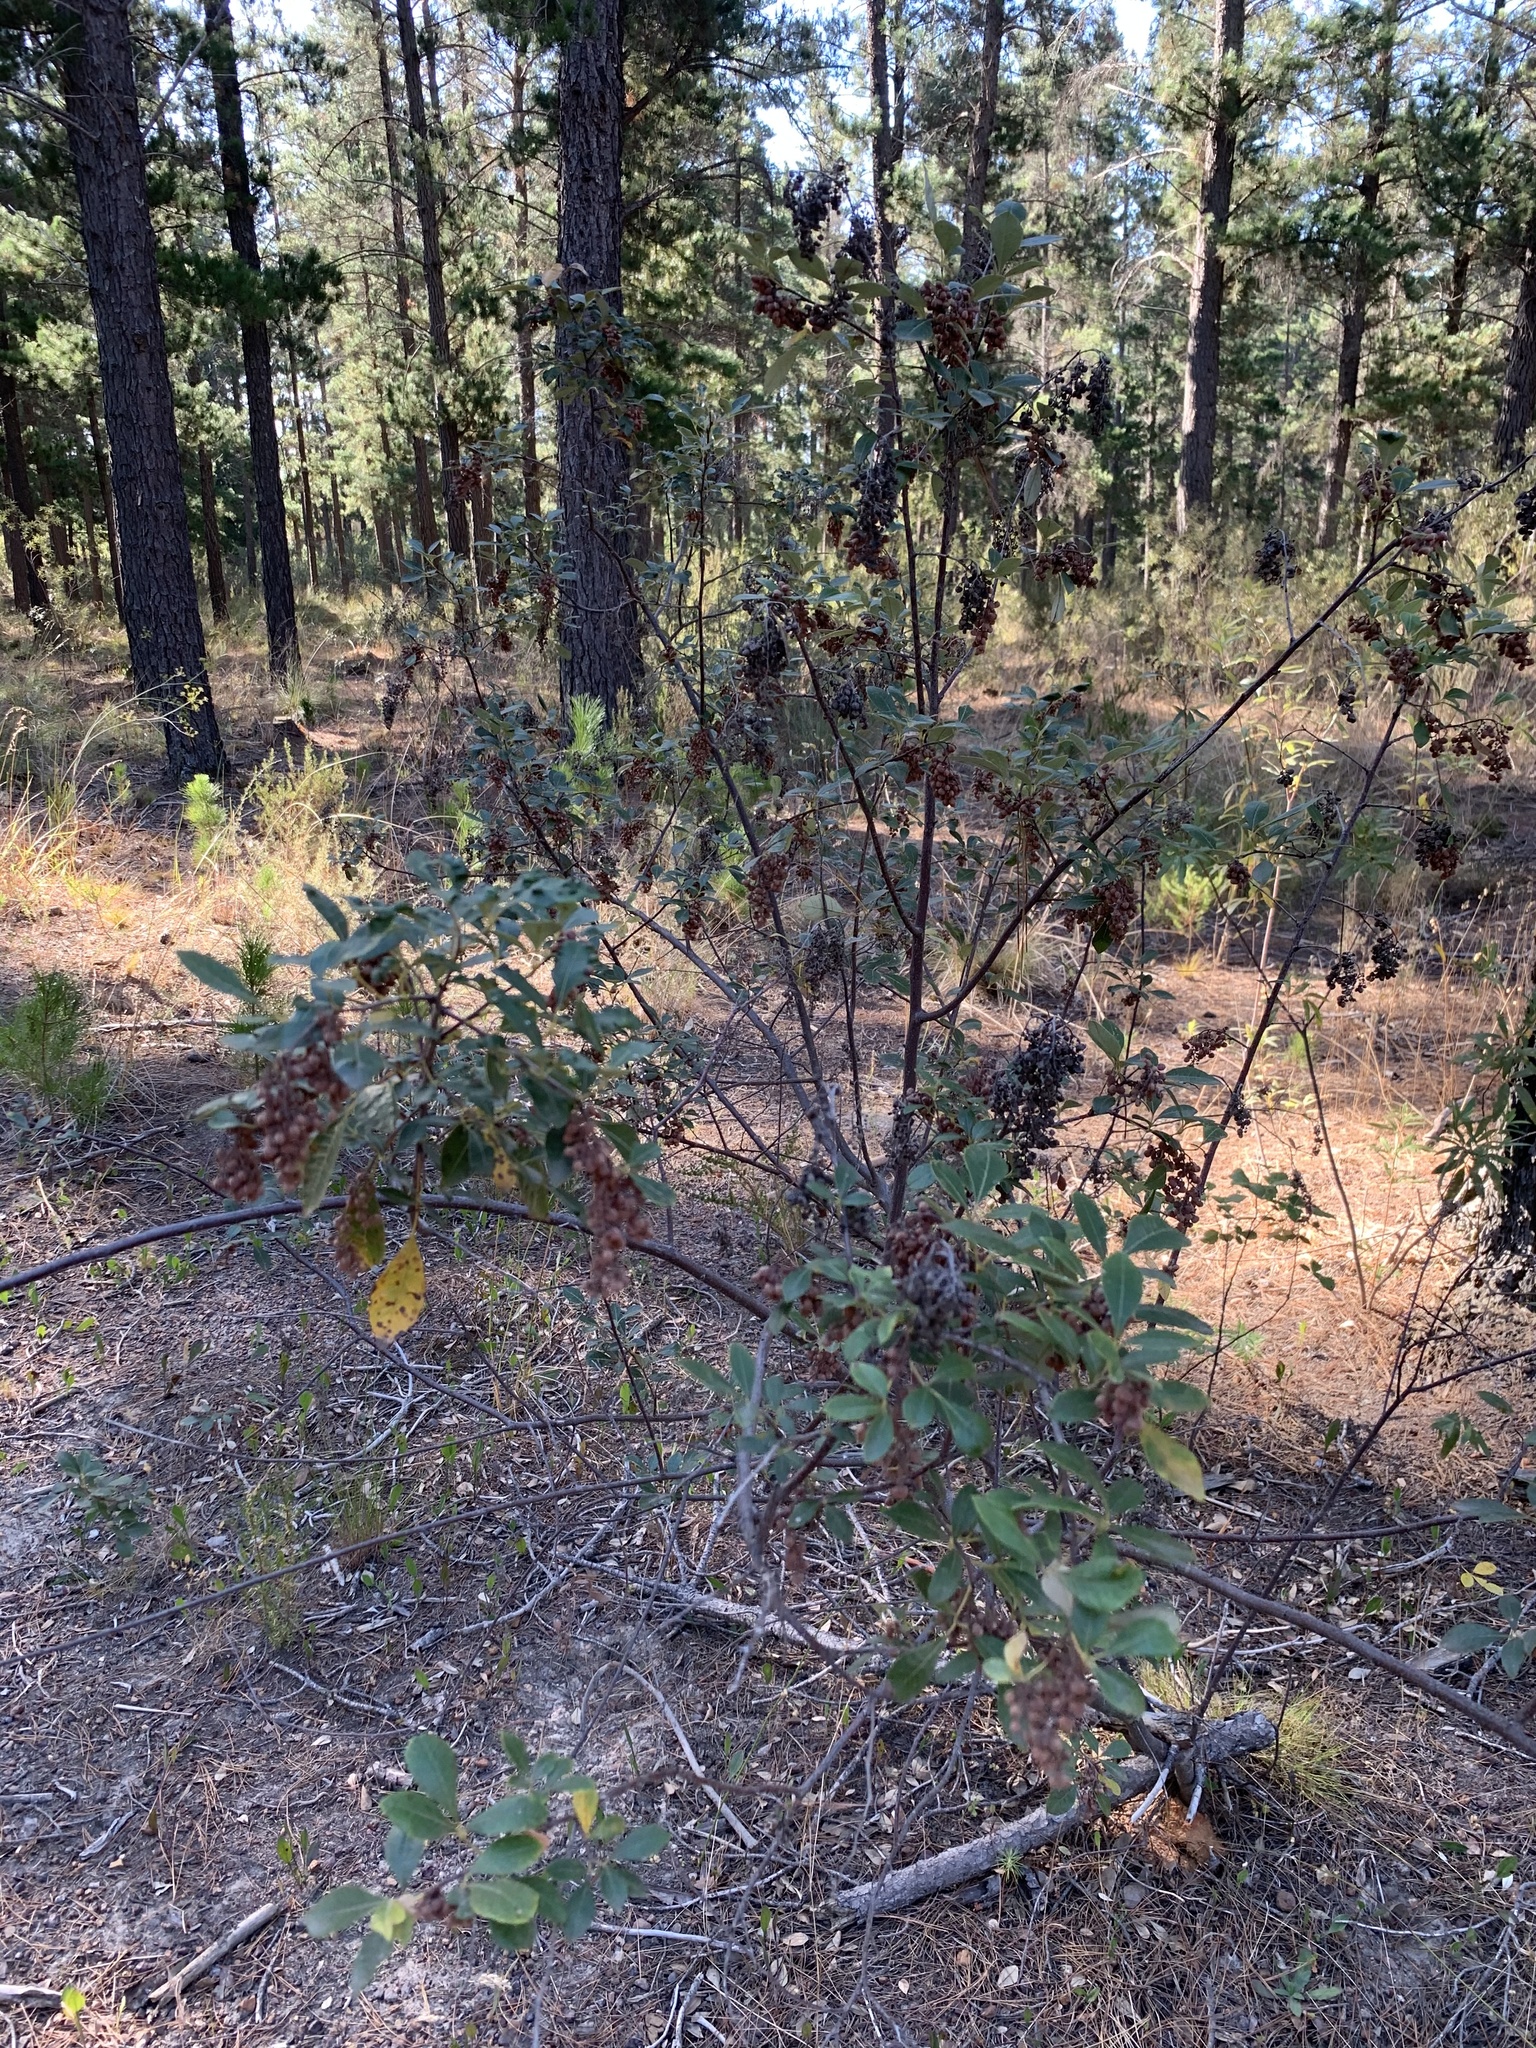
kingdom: Plantae
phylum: Tracheophyta
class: Magnoliopsida
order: Sapindales
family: Anacardiaceae
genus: Searsia
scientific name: Searsia tomentosa
